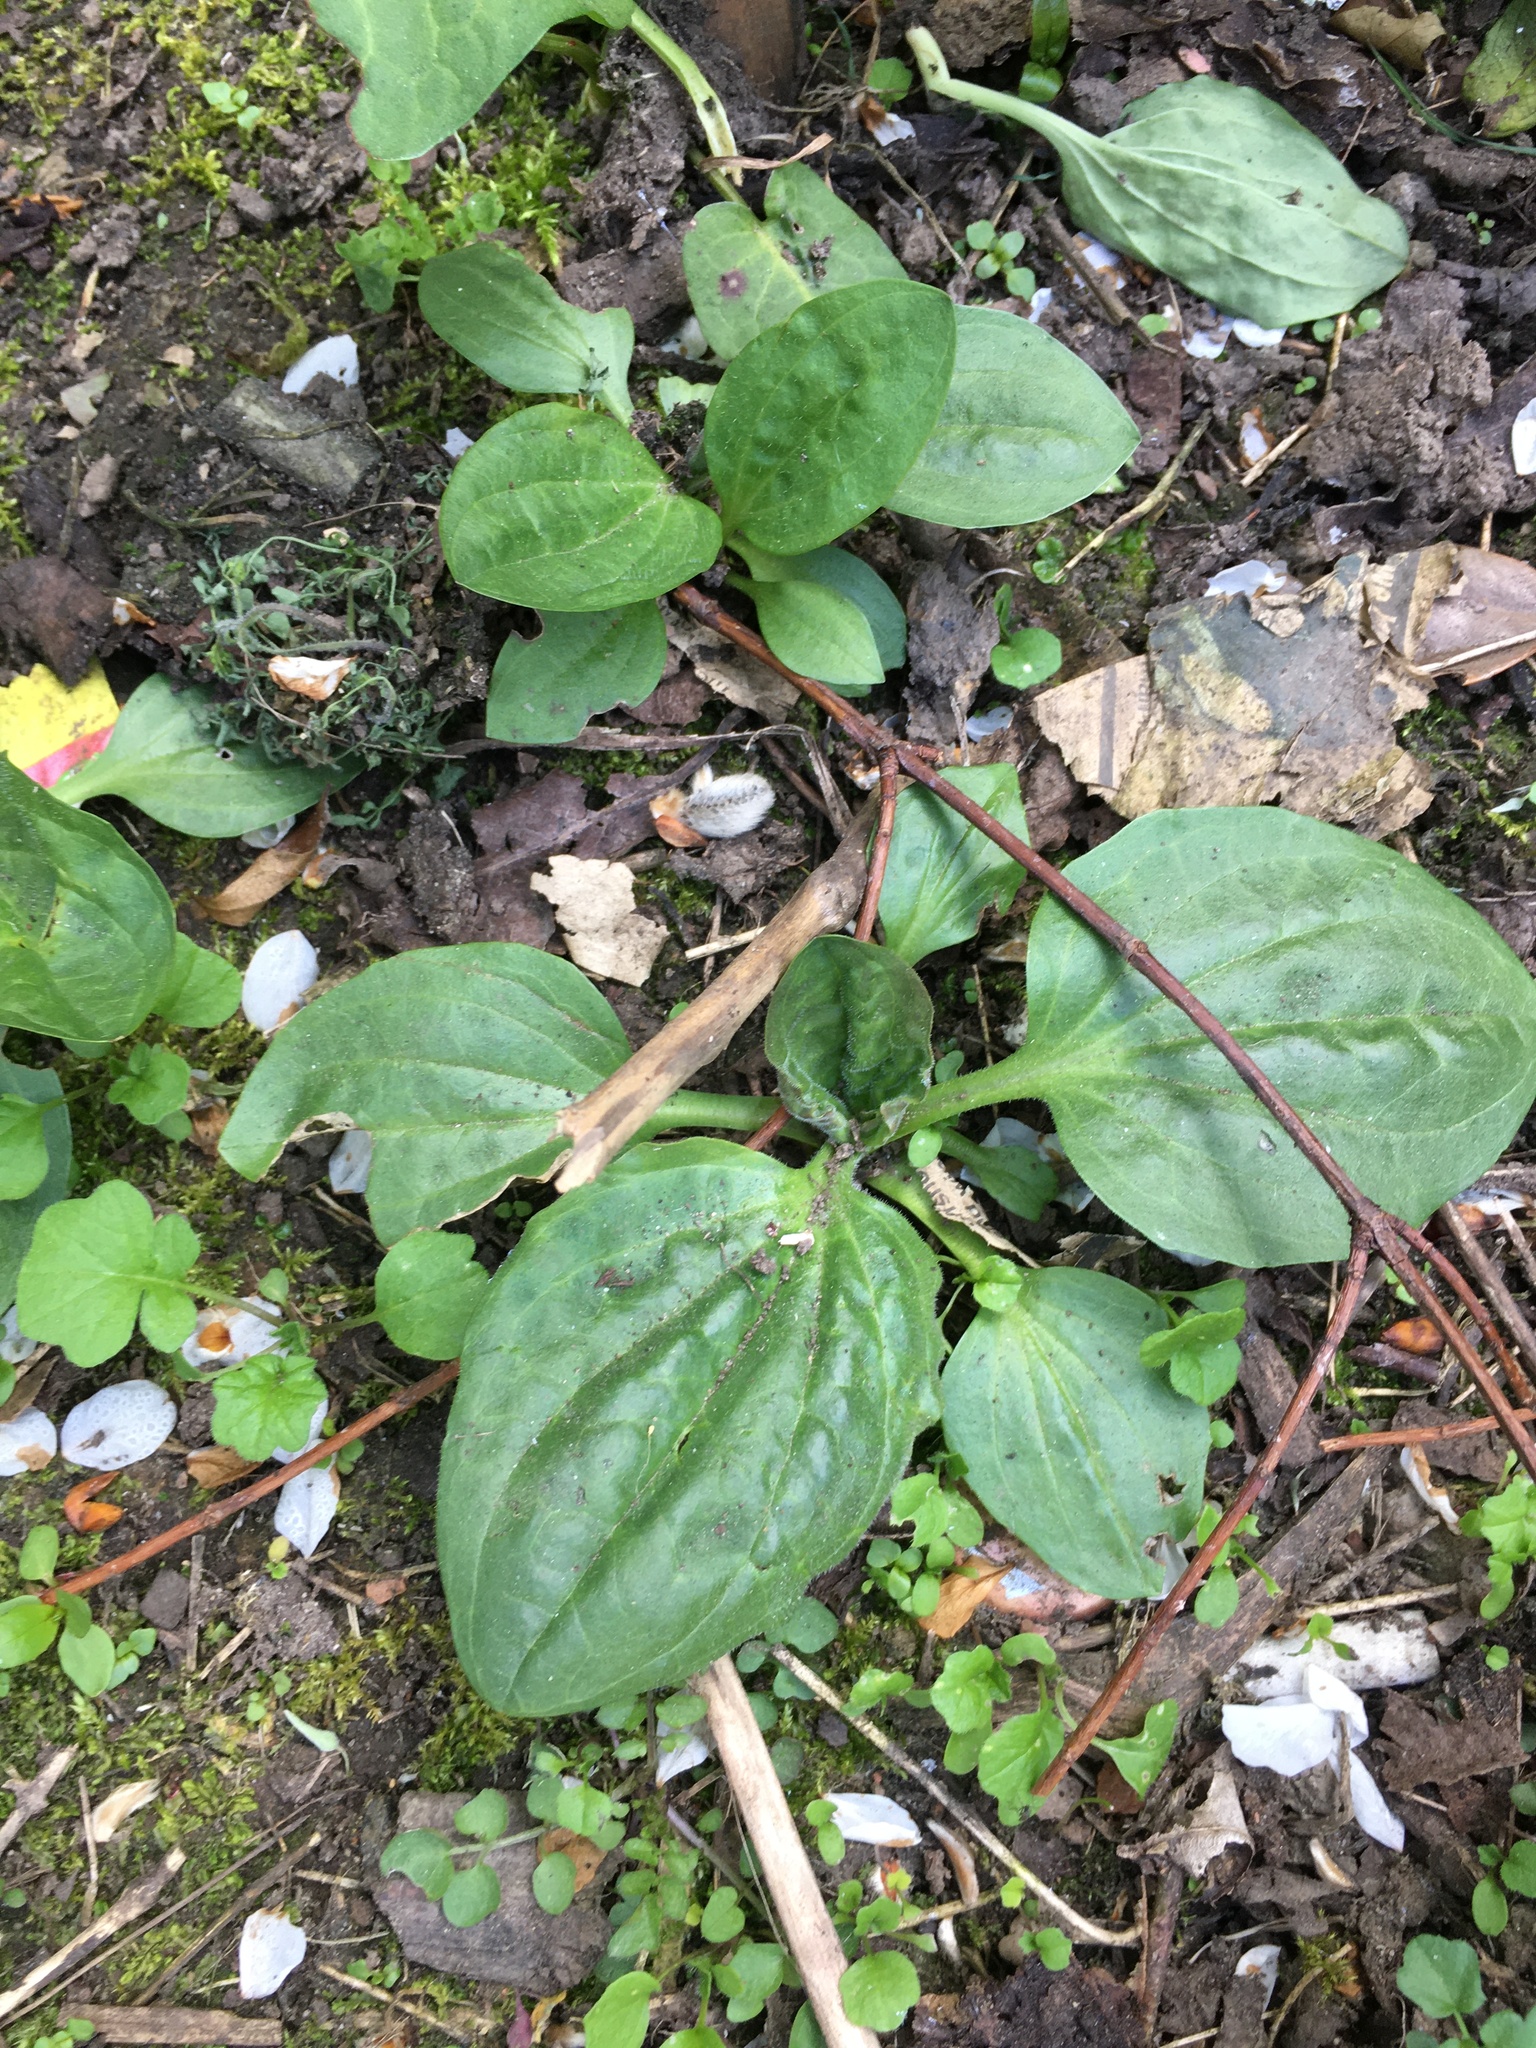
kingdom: Plantae
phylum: Tracheophyta
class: Magnoliopsida
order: Lamiales
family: Plantaginaceae
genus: Plantago
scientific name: Plantago major
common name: Common plantain
